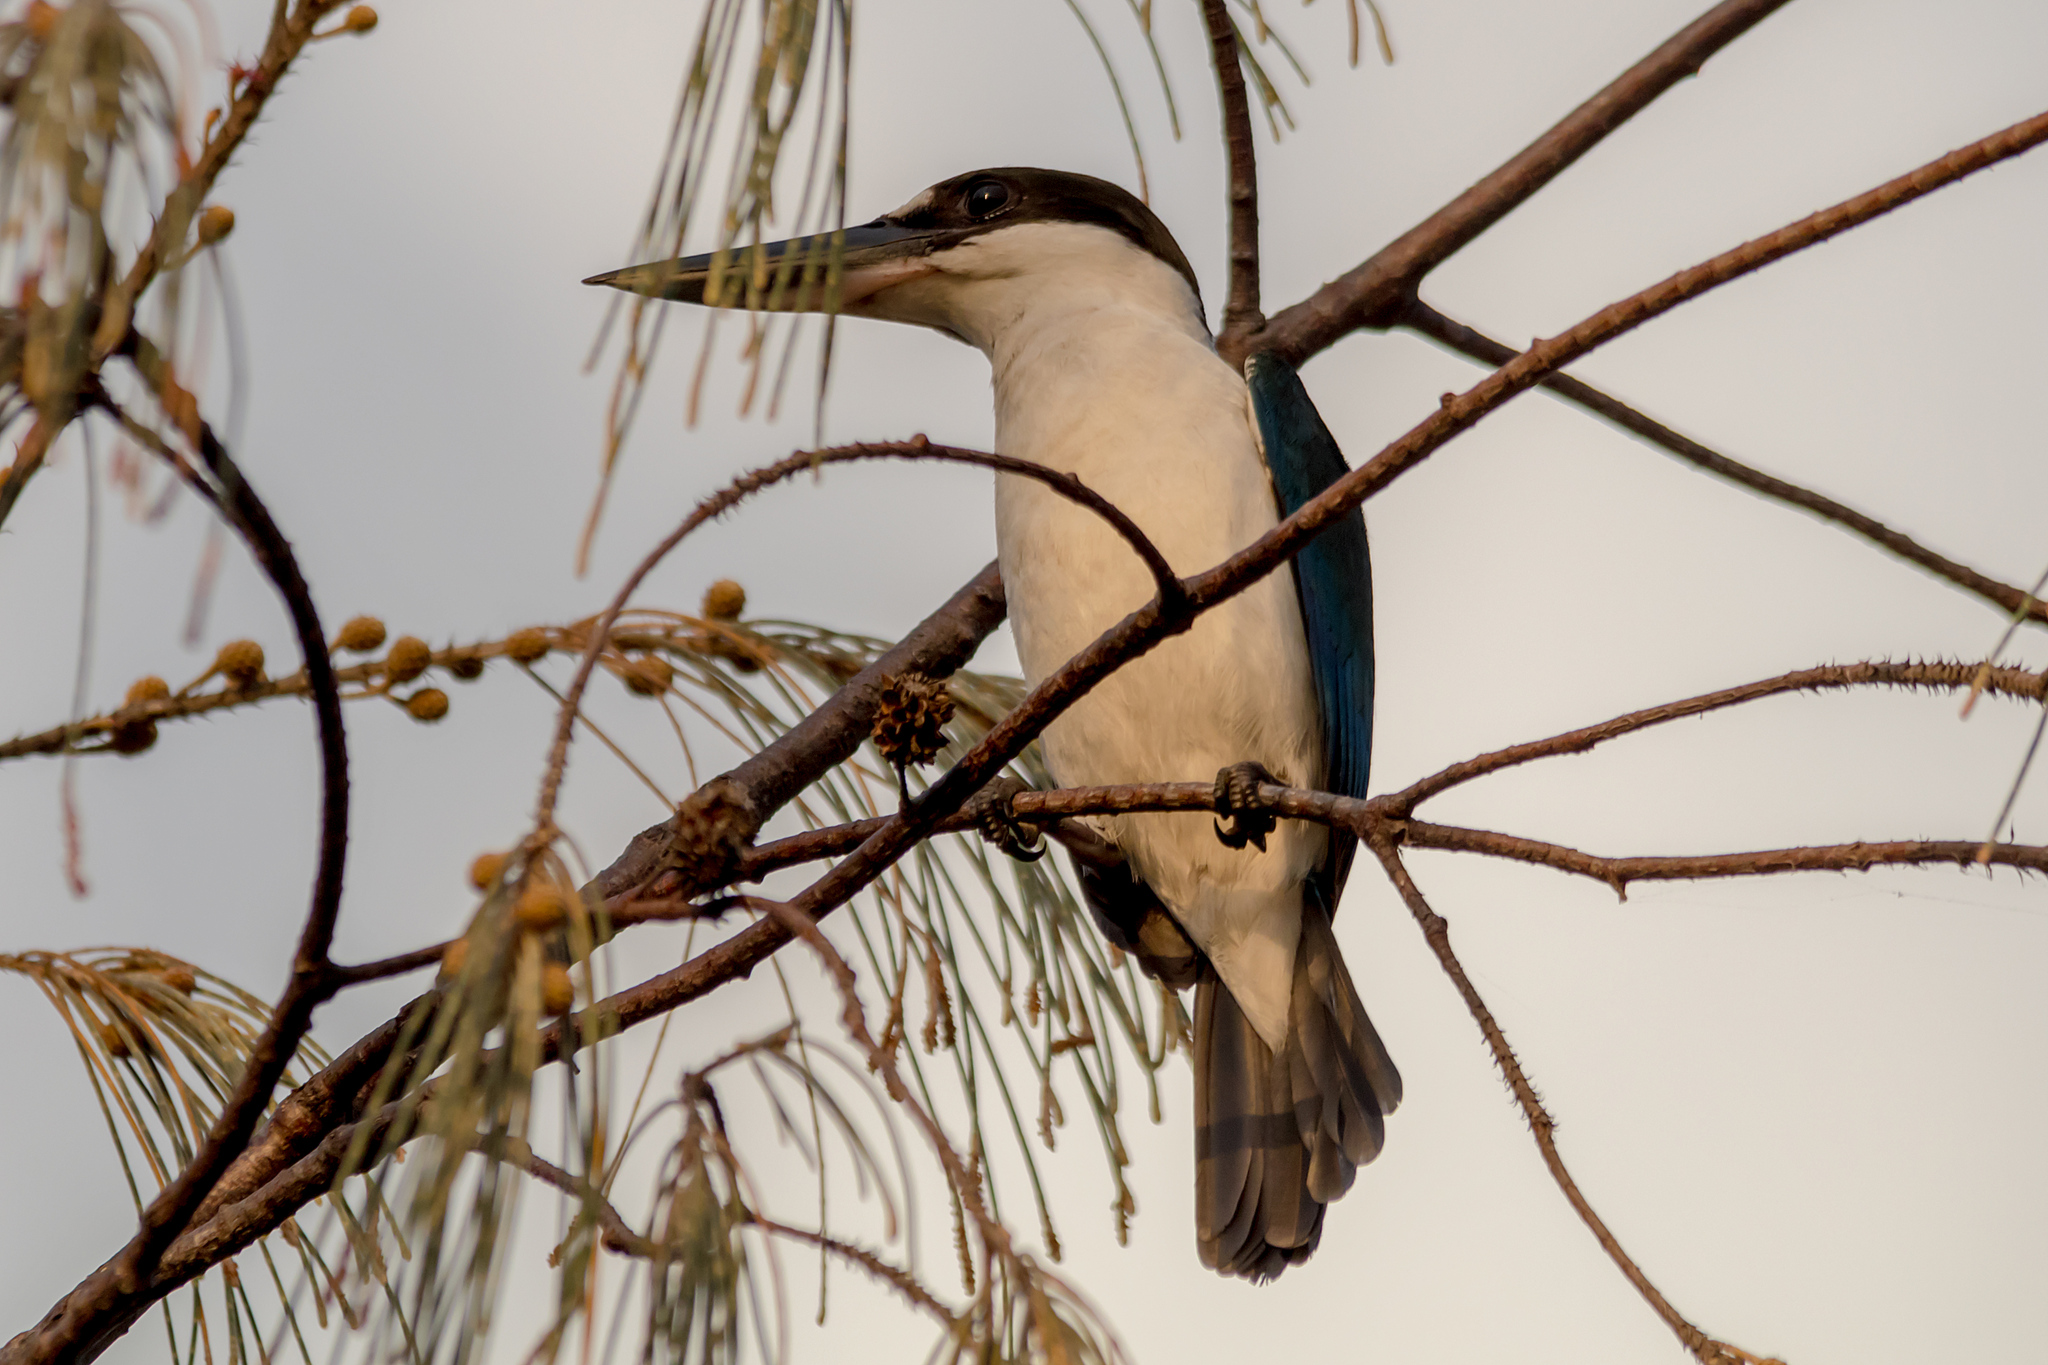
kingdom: Animalia
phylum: Chordata
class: Aves
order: Coraciiformes
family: Alcedinidae
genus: Todiramphus
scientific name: Todiramphus sordidus
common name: Torresian kingfisher
